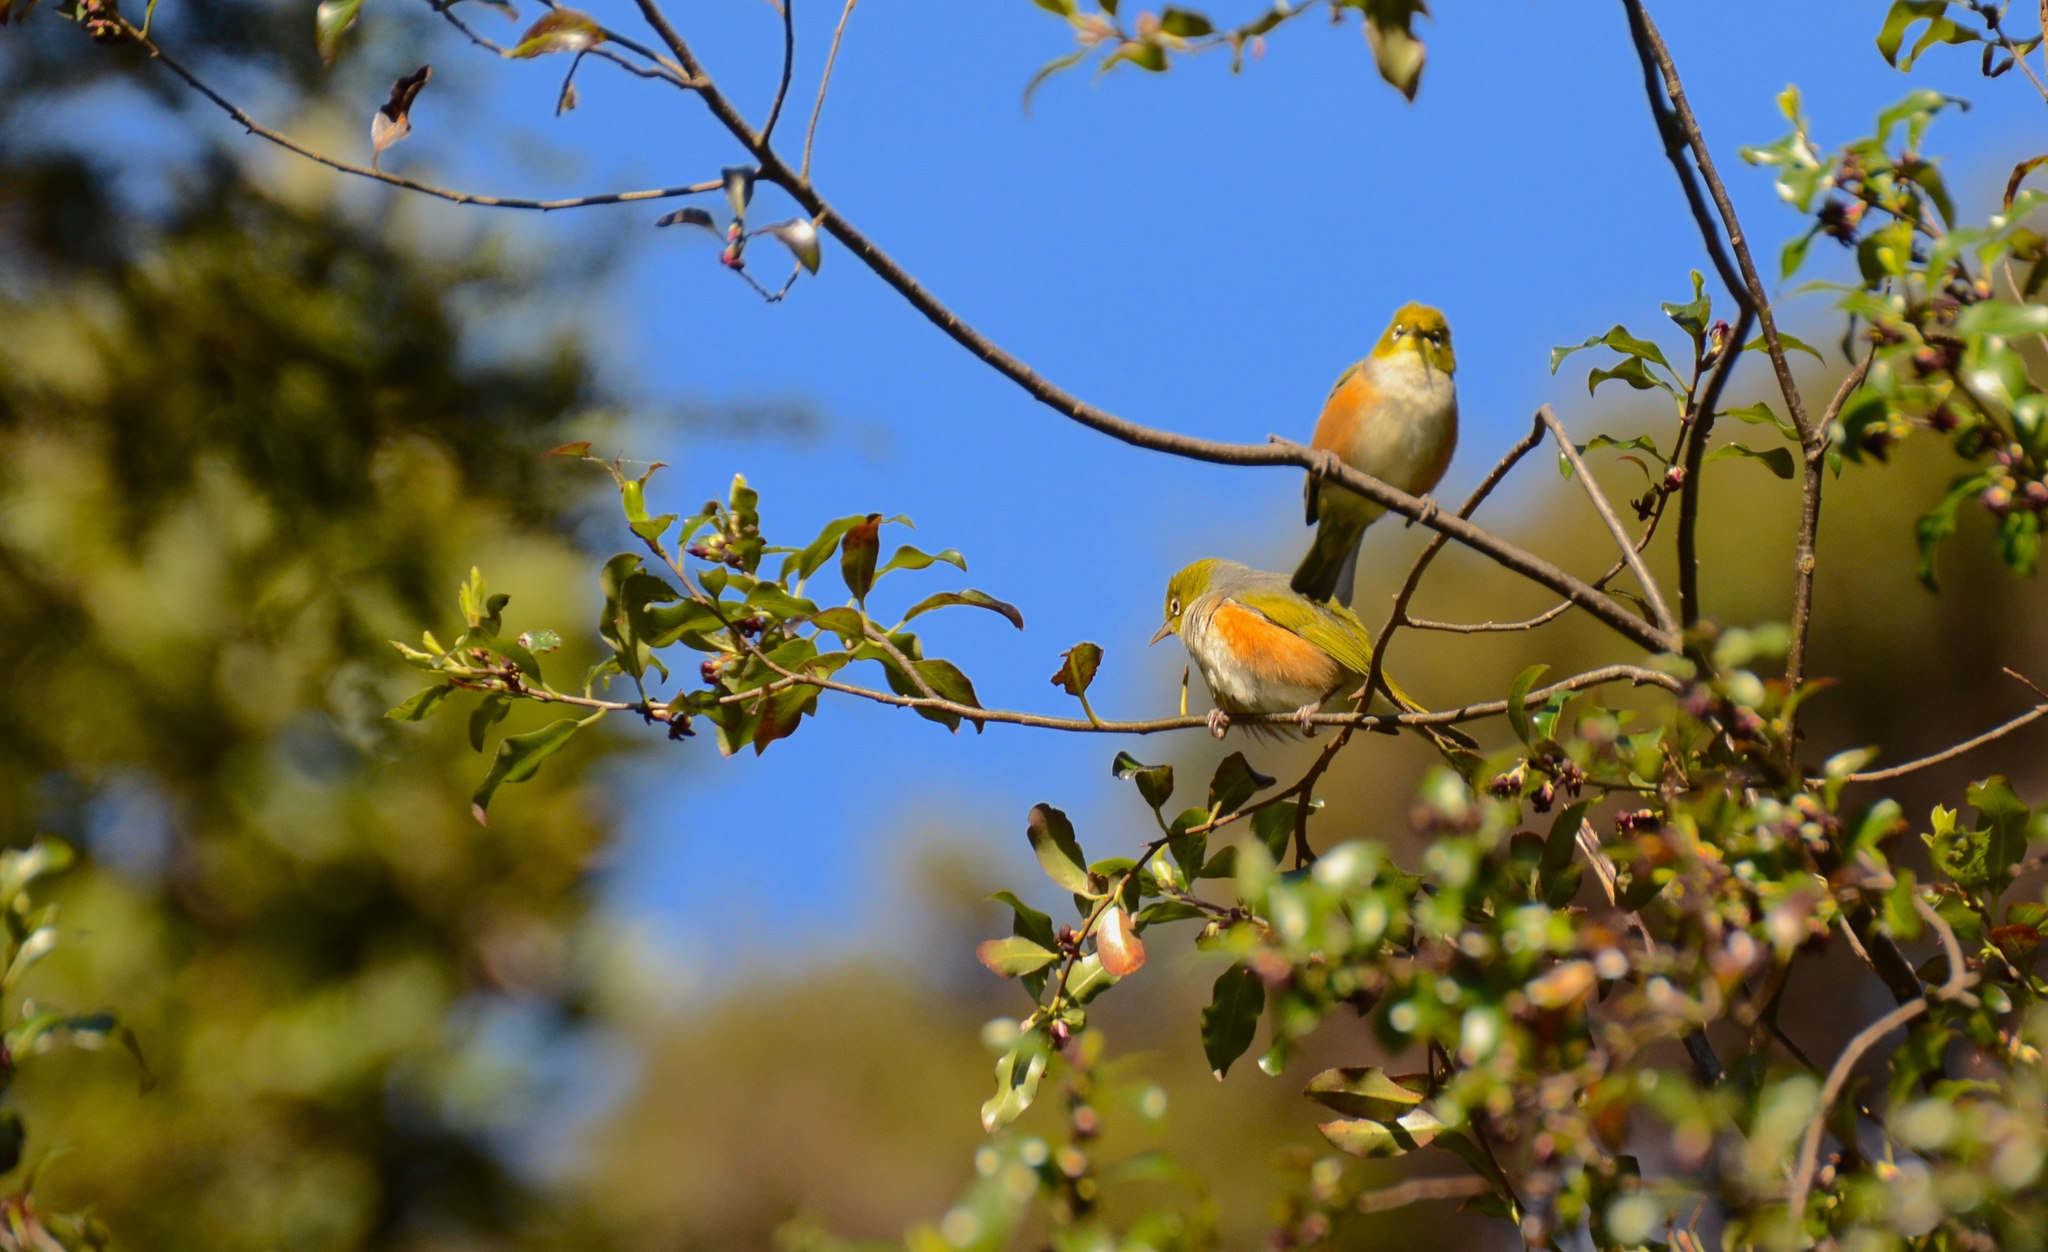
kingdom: Animalia
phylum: Chordata
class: Aves
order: Passeriformes
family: Zosteropidae
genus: Zosterops
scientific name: Zosterops lateralis
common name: Silvereye
